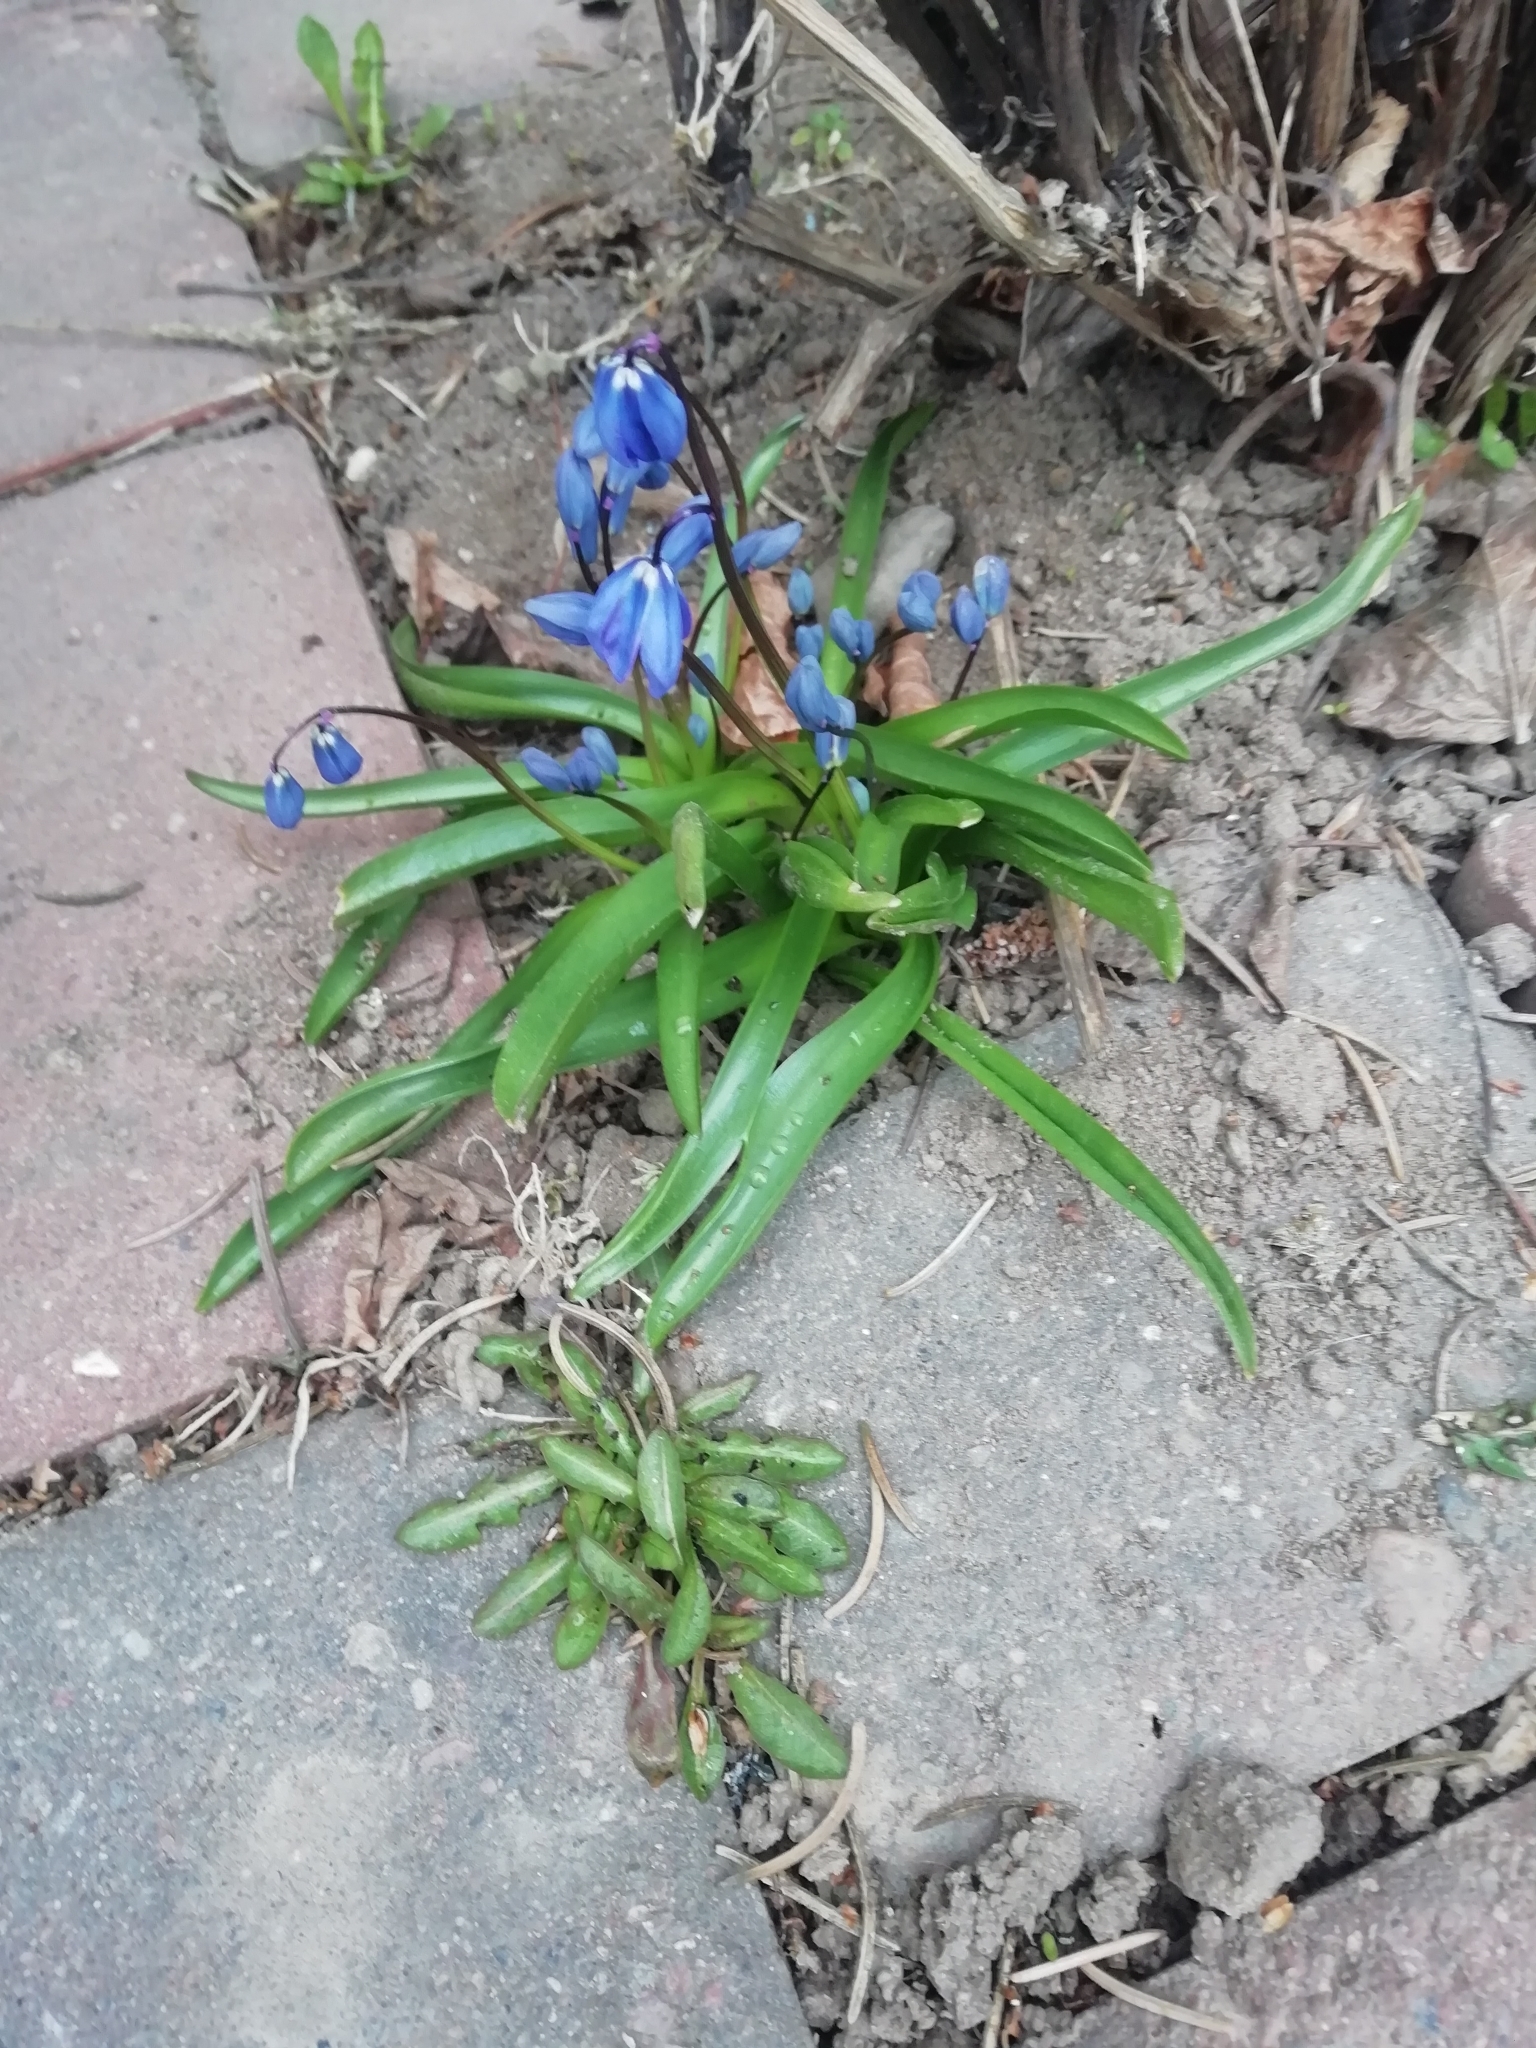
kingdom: Plantae
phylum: Tracheophyta
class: Liliopsida
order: Asparagales
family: Asparagaceae
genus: Scilla
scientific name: Scilla siberica
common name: Siberian squill
